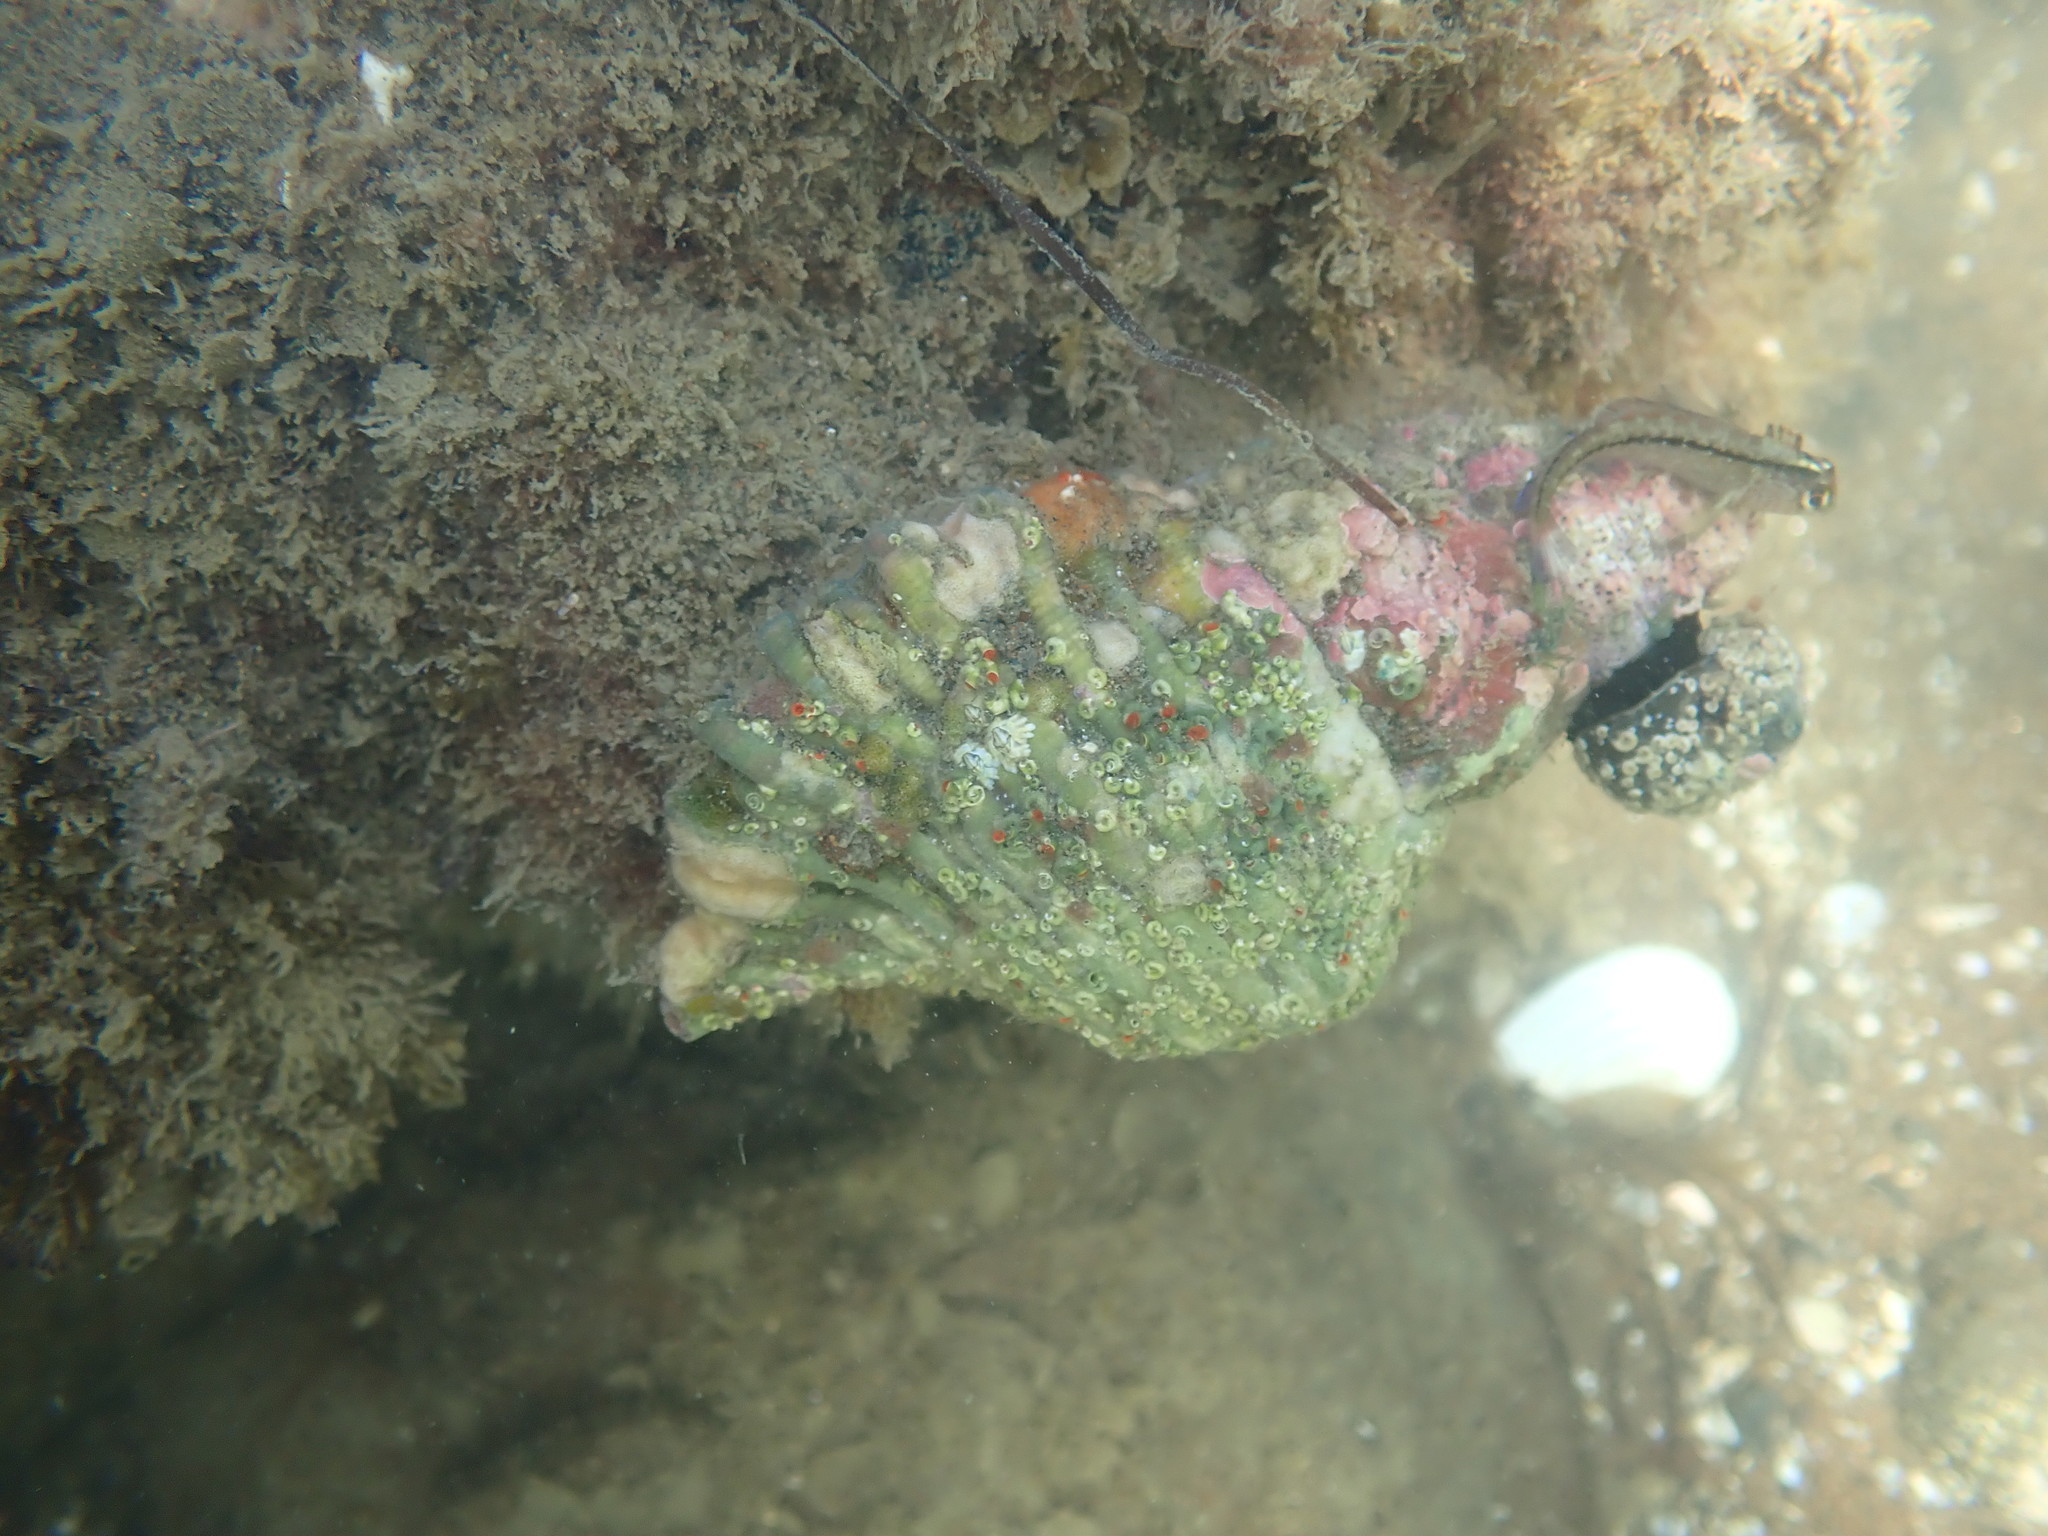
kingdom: Animalia
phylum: Mollusca
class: Gastropoda
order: Littorinimorpha
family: Cymatiidae
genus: Cabestana
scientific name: Cabestana spengleri
